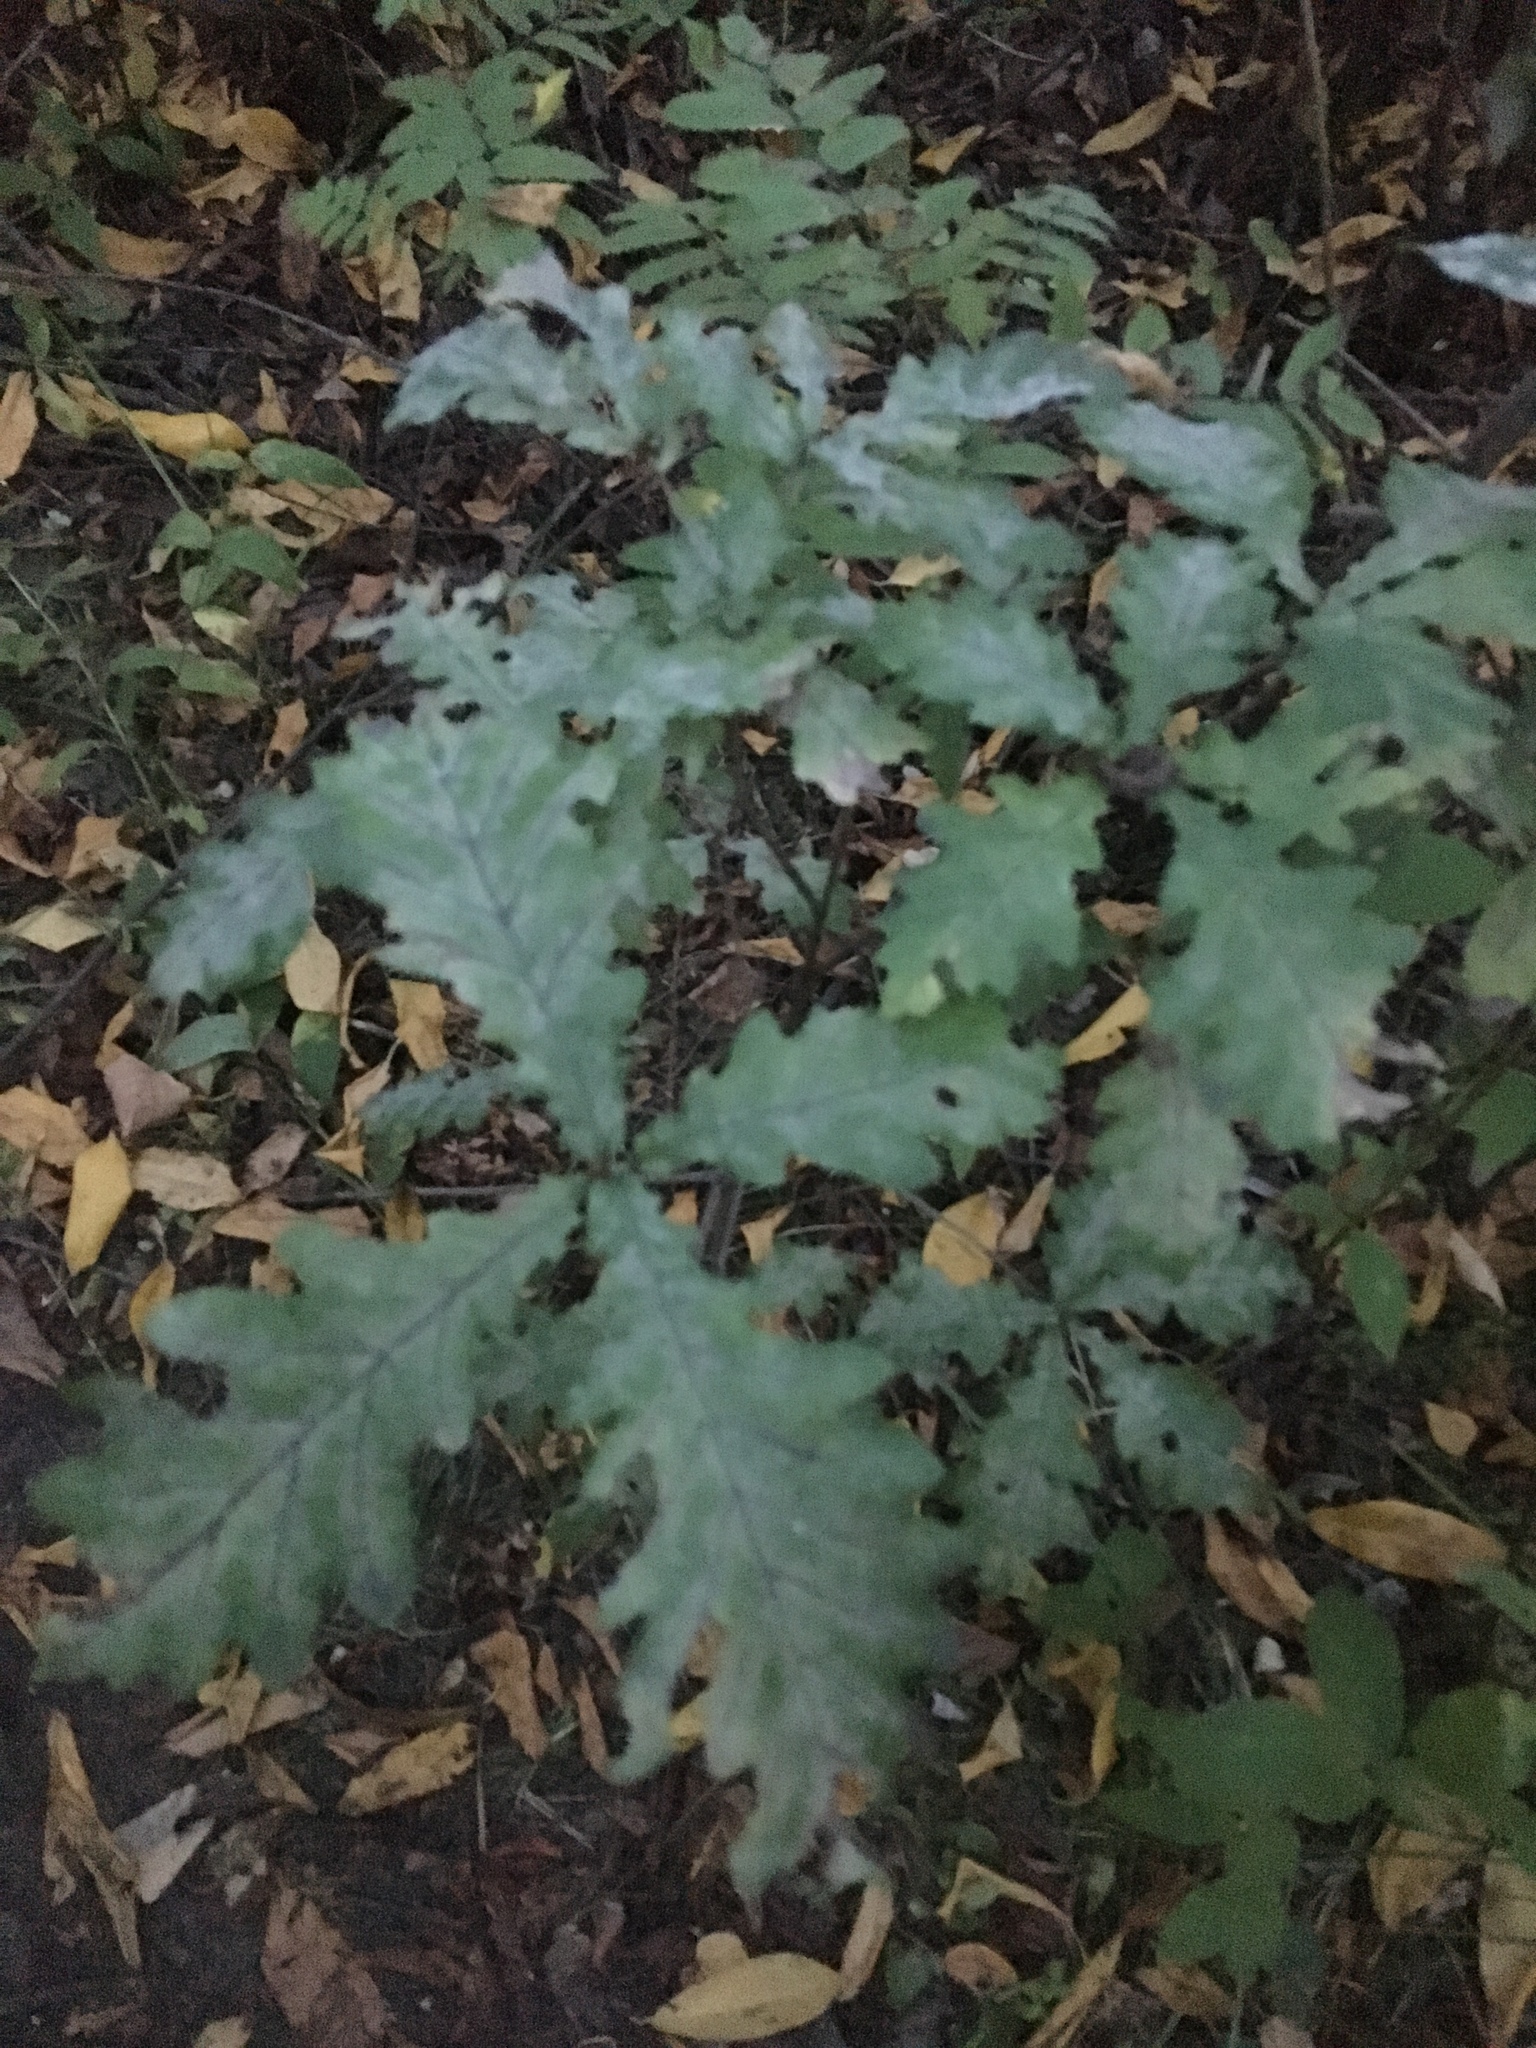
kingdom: Plantae
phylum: Tracheophyta
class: Magnoliopsida
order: Fagales
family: Fagaceae
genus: Quercus
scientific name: Quercus robur
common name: Pedunculate oak
